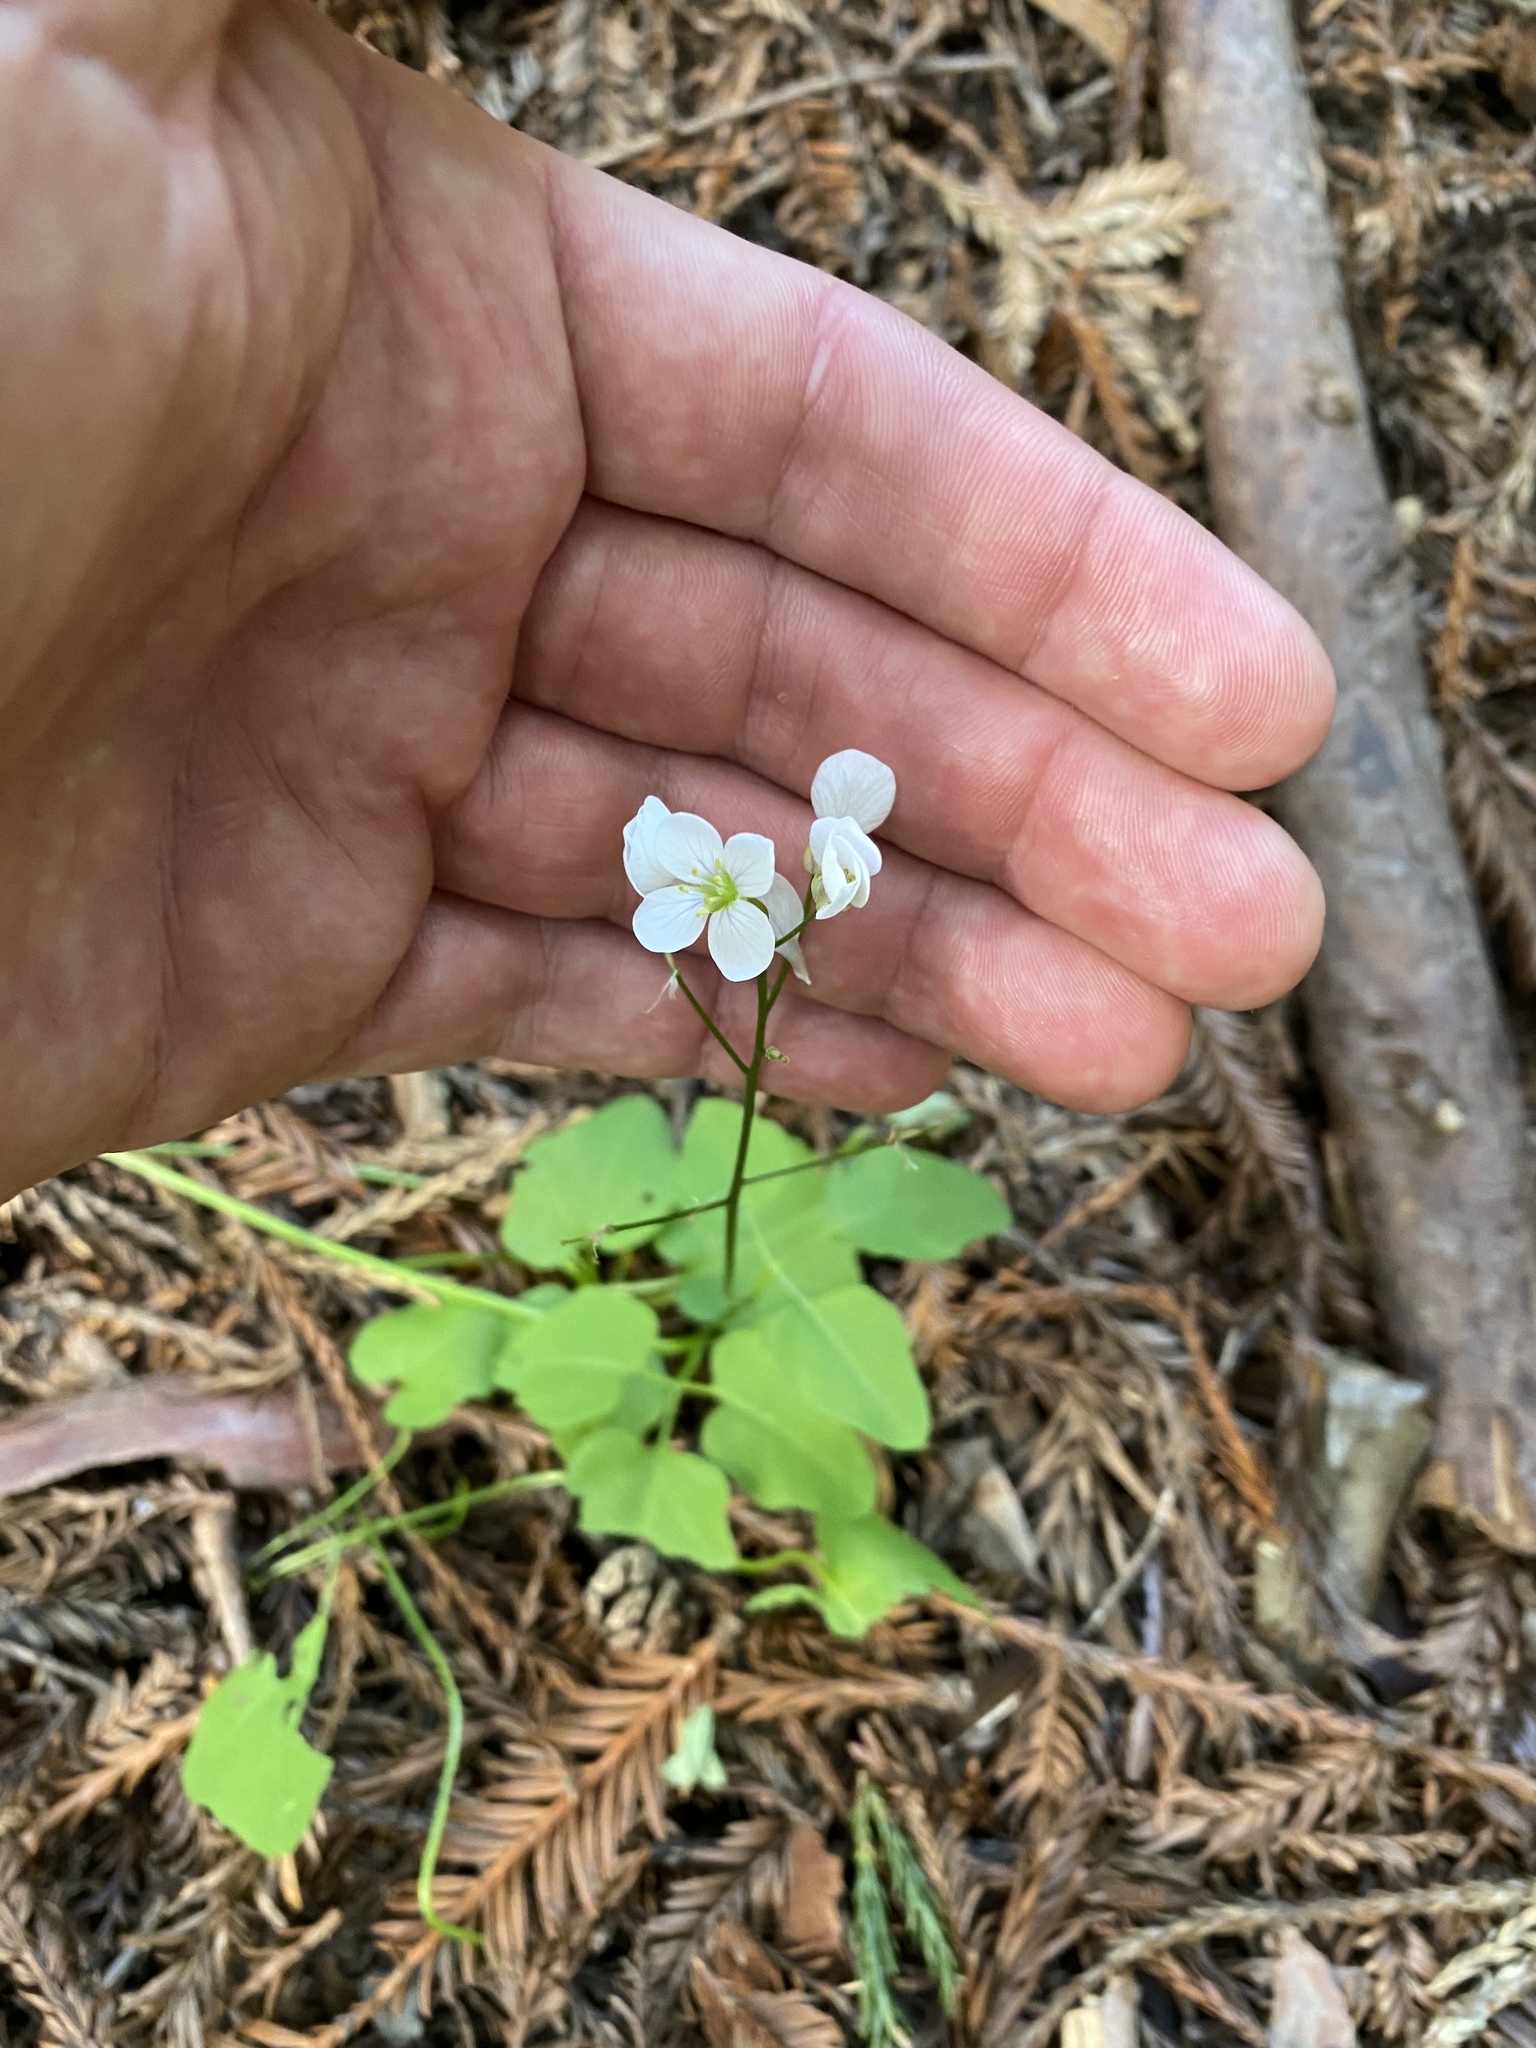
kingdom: Plantae
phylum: Tracheophyta
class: Magnoliopsida
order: Brassicales
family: Brassicaceae
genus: Cardamine
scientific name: Cardamine californica
